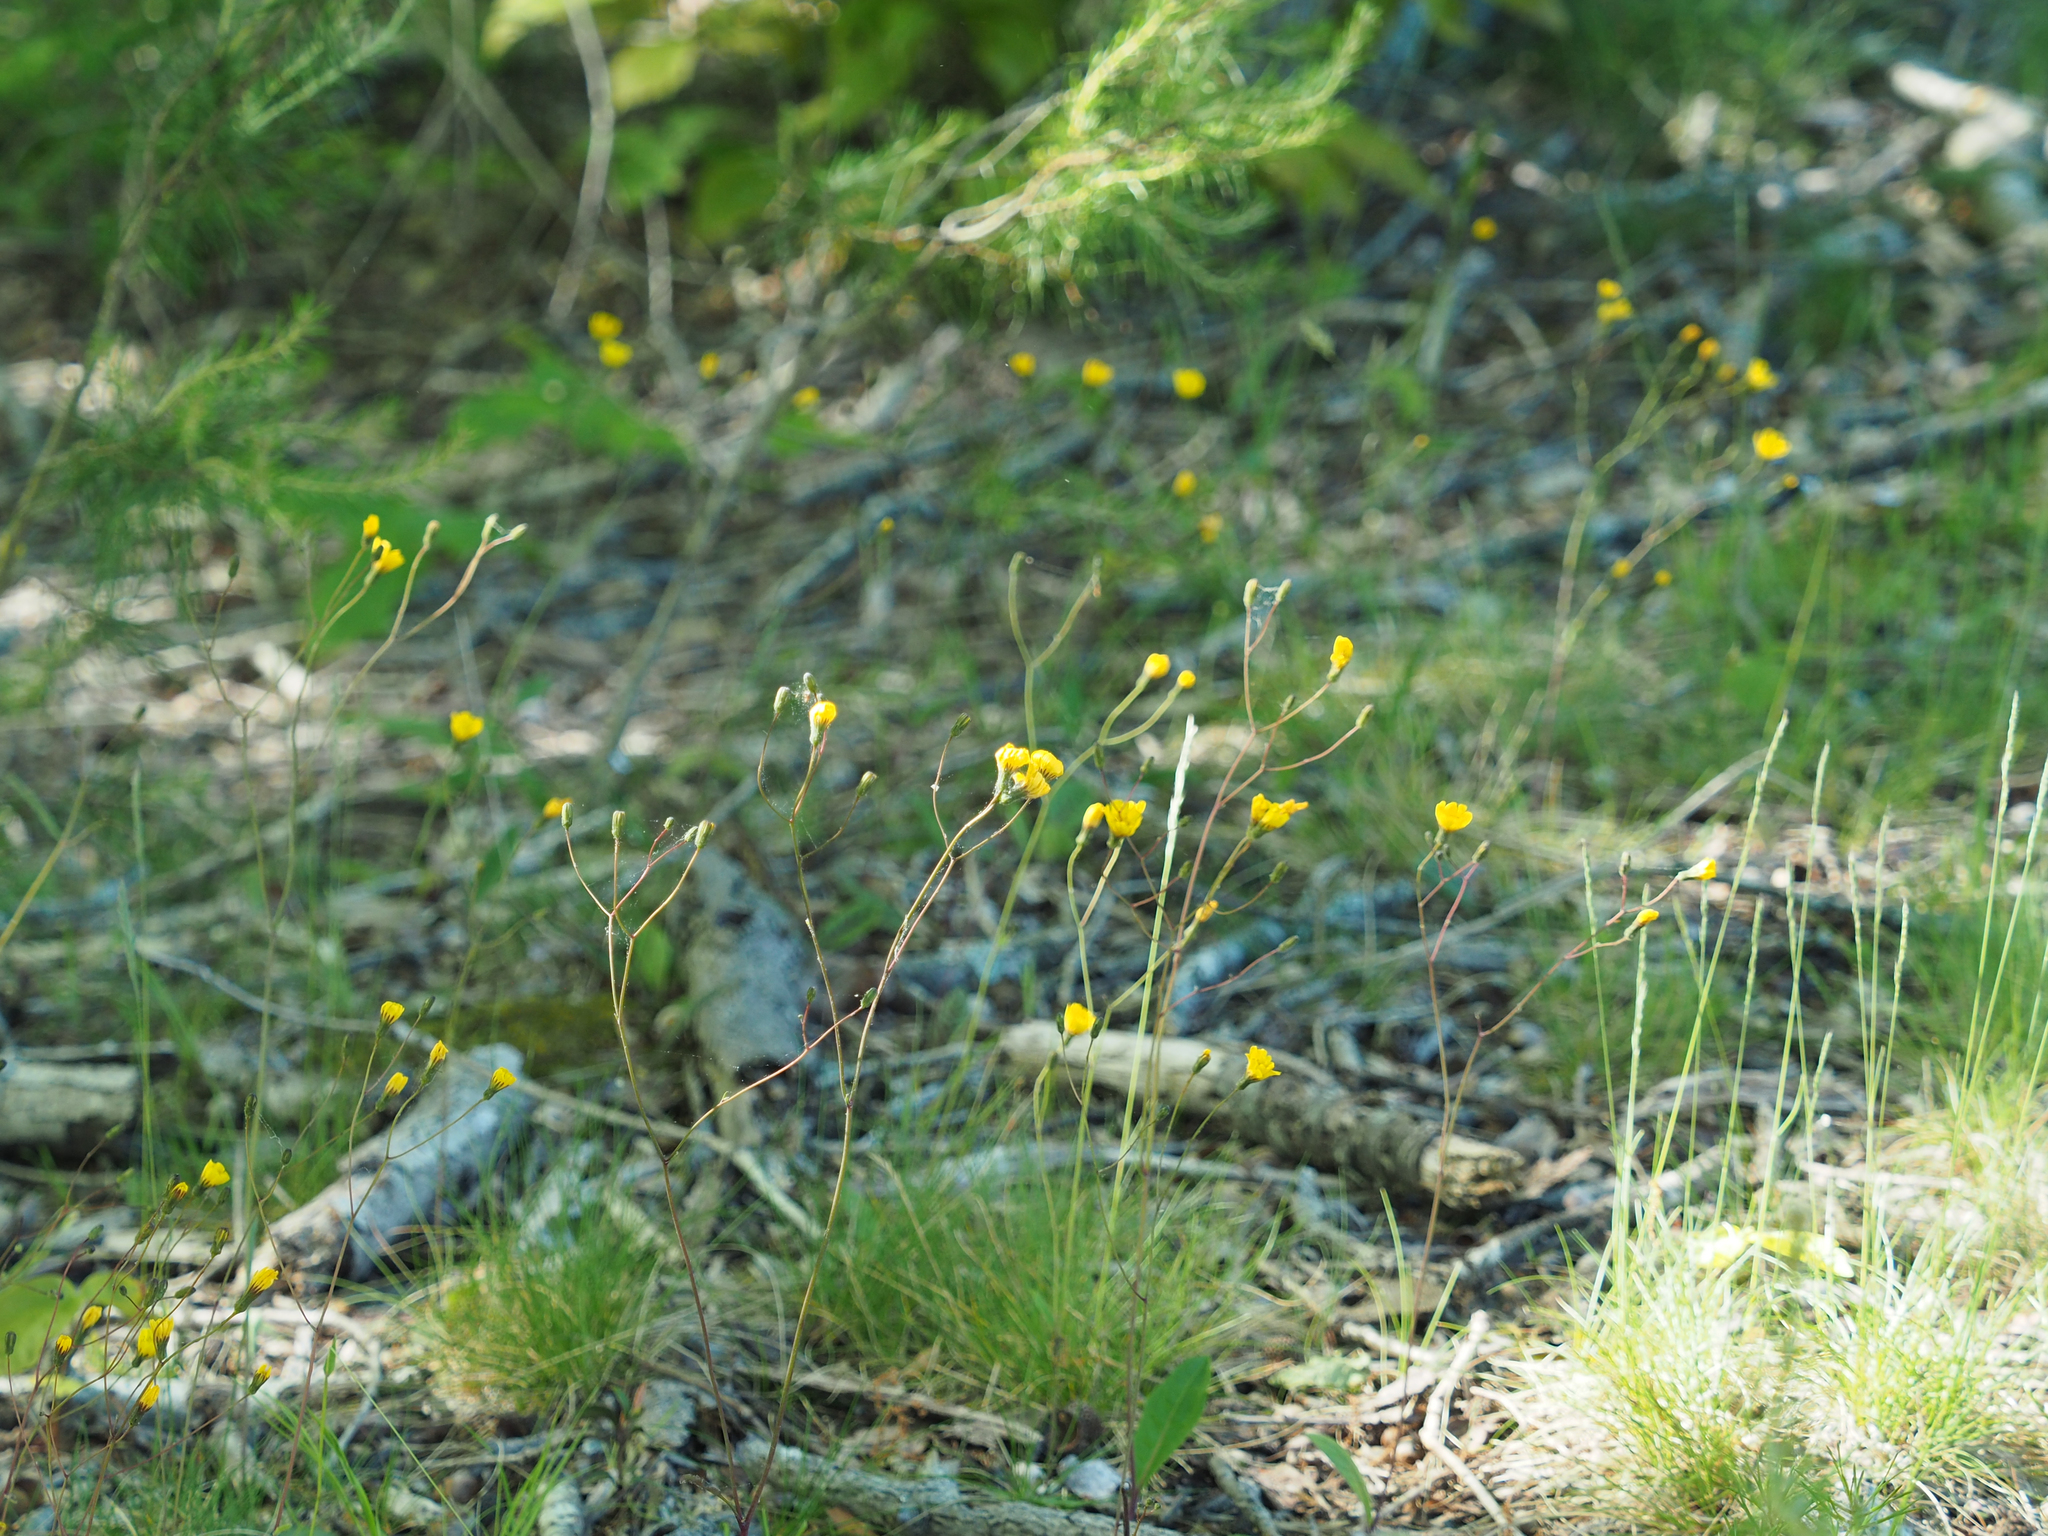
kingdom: Plantae
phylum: Tracheophyta
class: Magnoliopsida
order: Asterales
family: Asteraceae
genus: Hieracium
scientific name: Hieracium venosum
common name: Rattlesnake hawkweed
